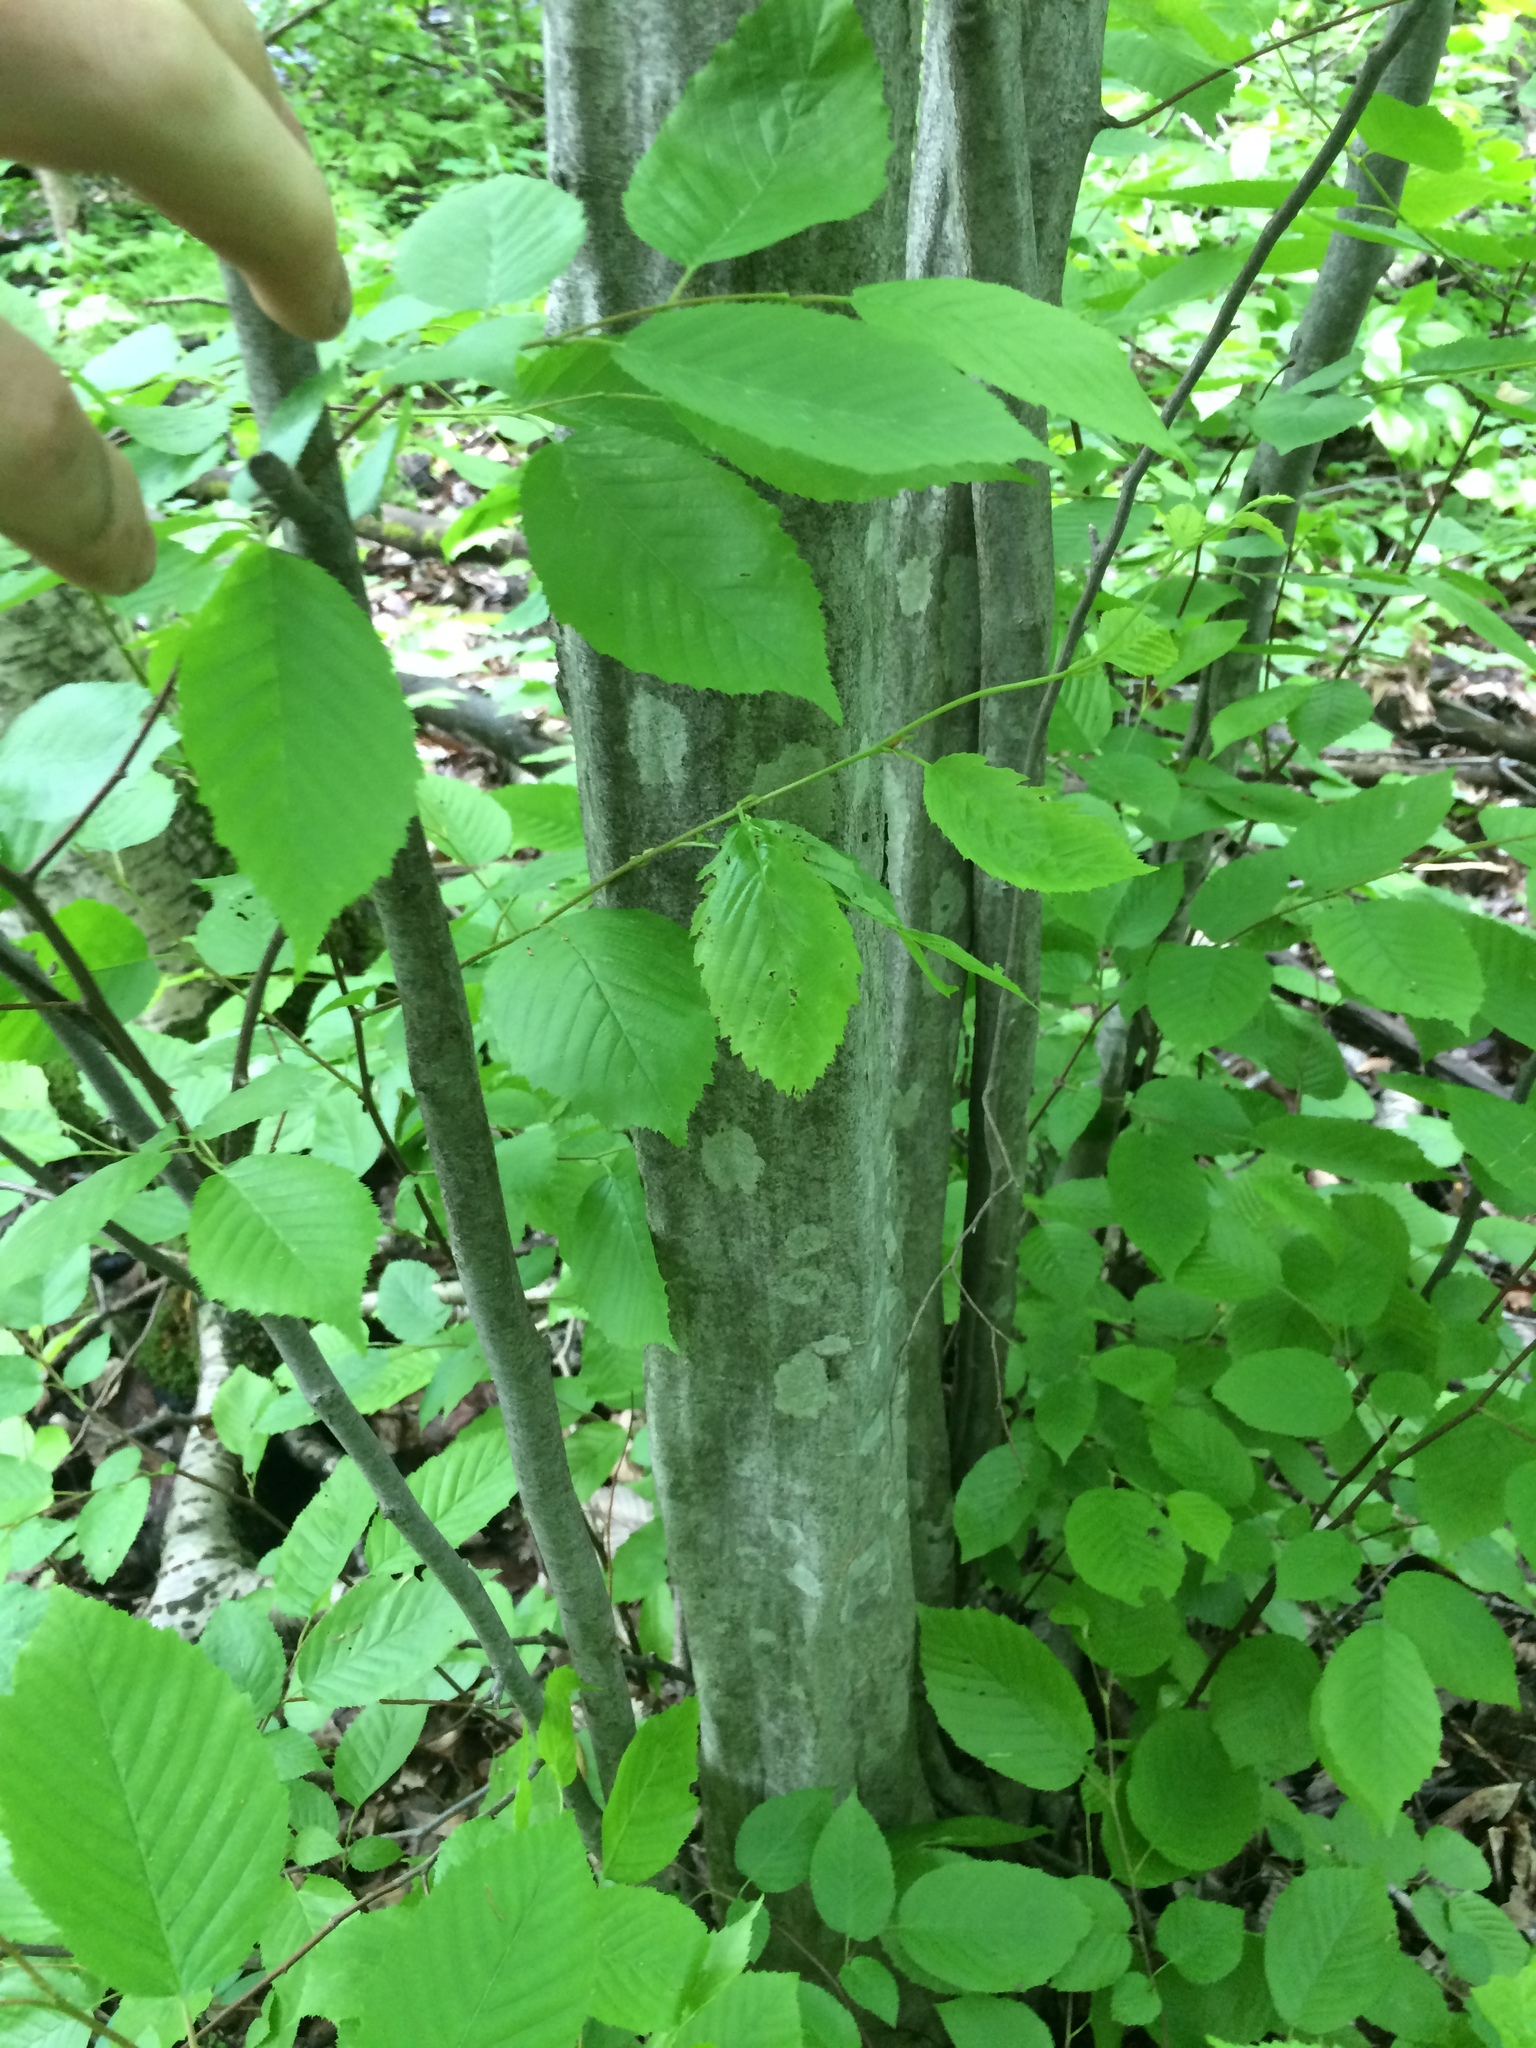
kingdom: Plantae
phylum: Tracheophyta
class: Magnoliopsida
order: Fagales
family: Betulaceae
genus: Carpinus
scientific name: Carpinus caroliniana
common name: American hornbeam
